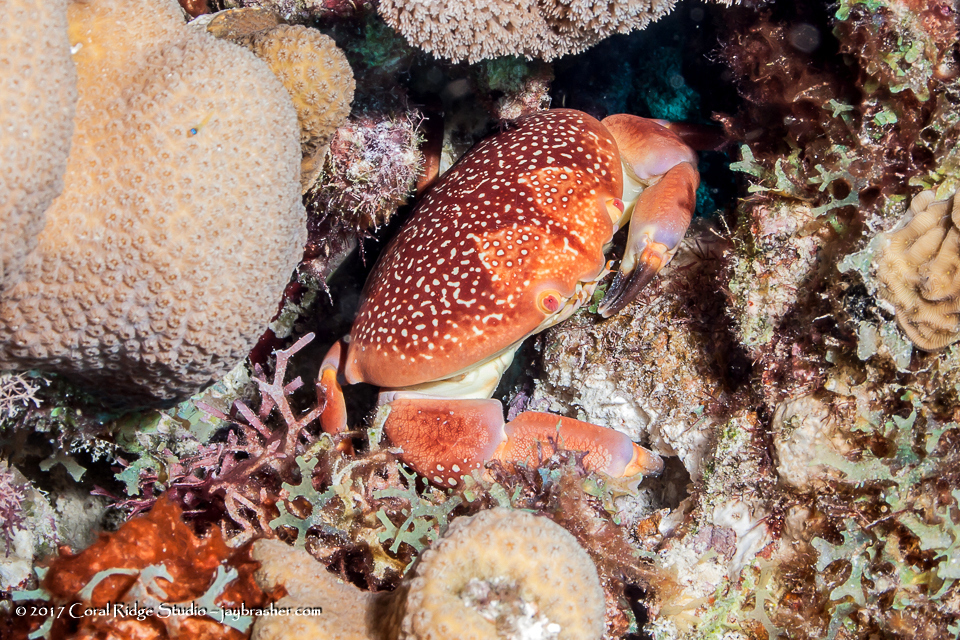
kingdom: Animalia
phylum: Arthropoda
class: Malacostraca
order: Decapoda
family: Carpiliidae
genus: Carpilius
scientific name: Carpilius corallinus
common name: Batwing coral crab
